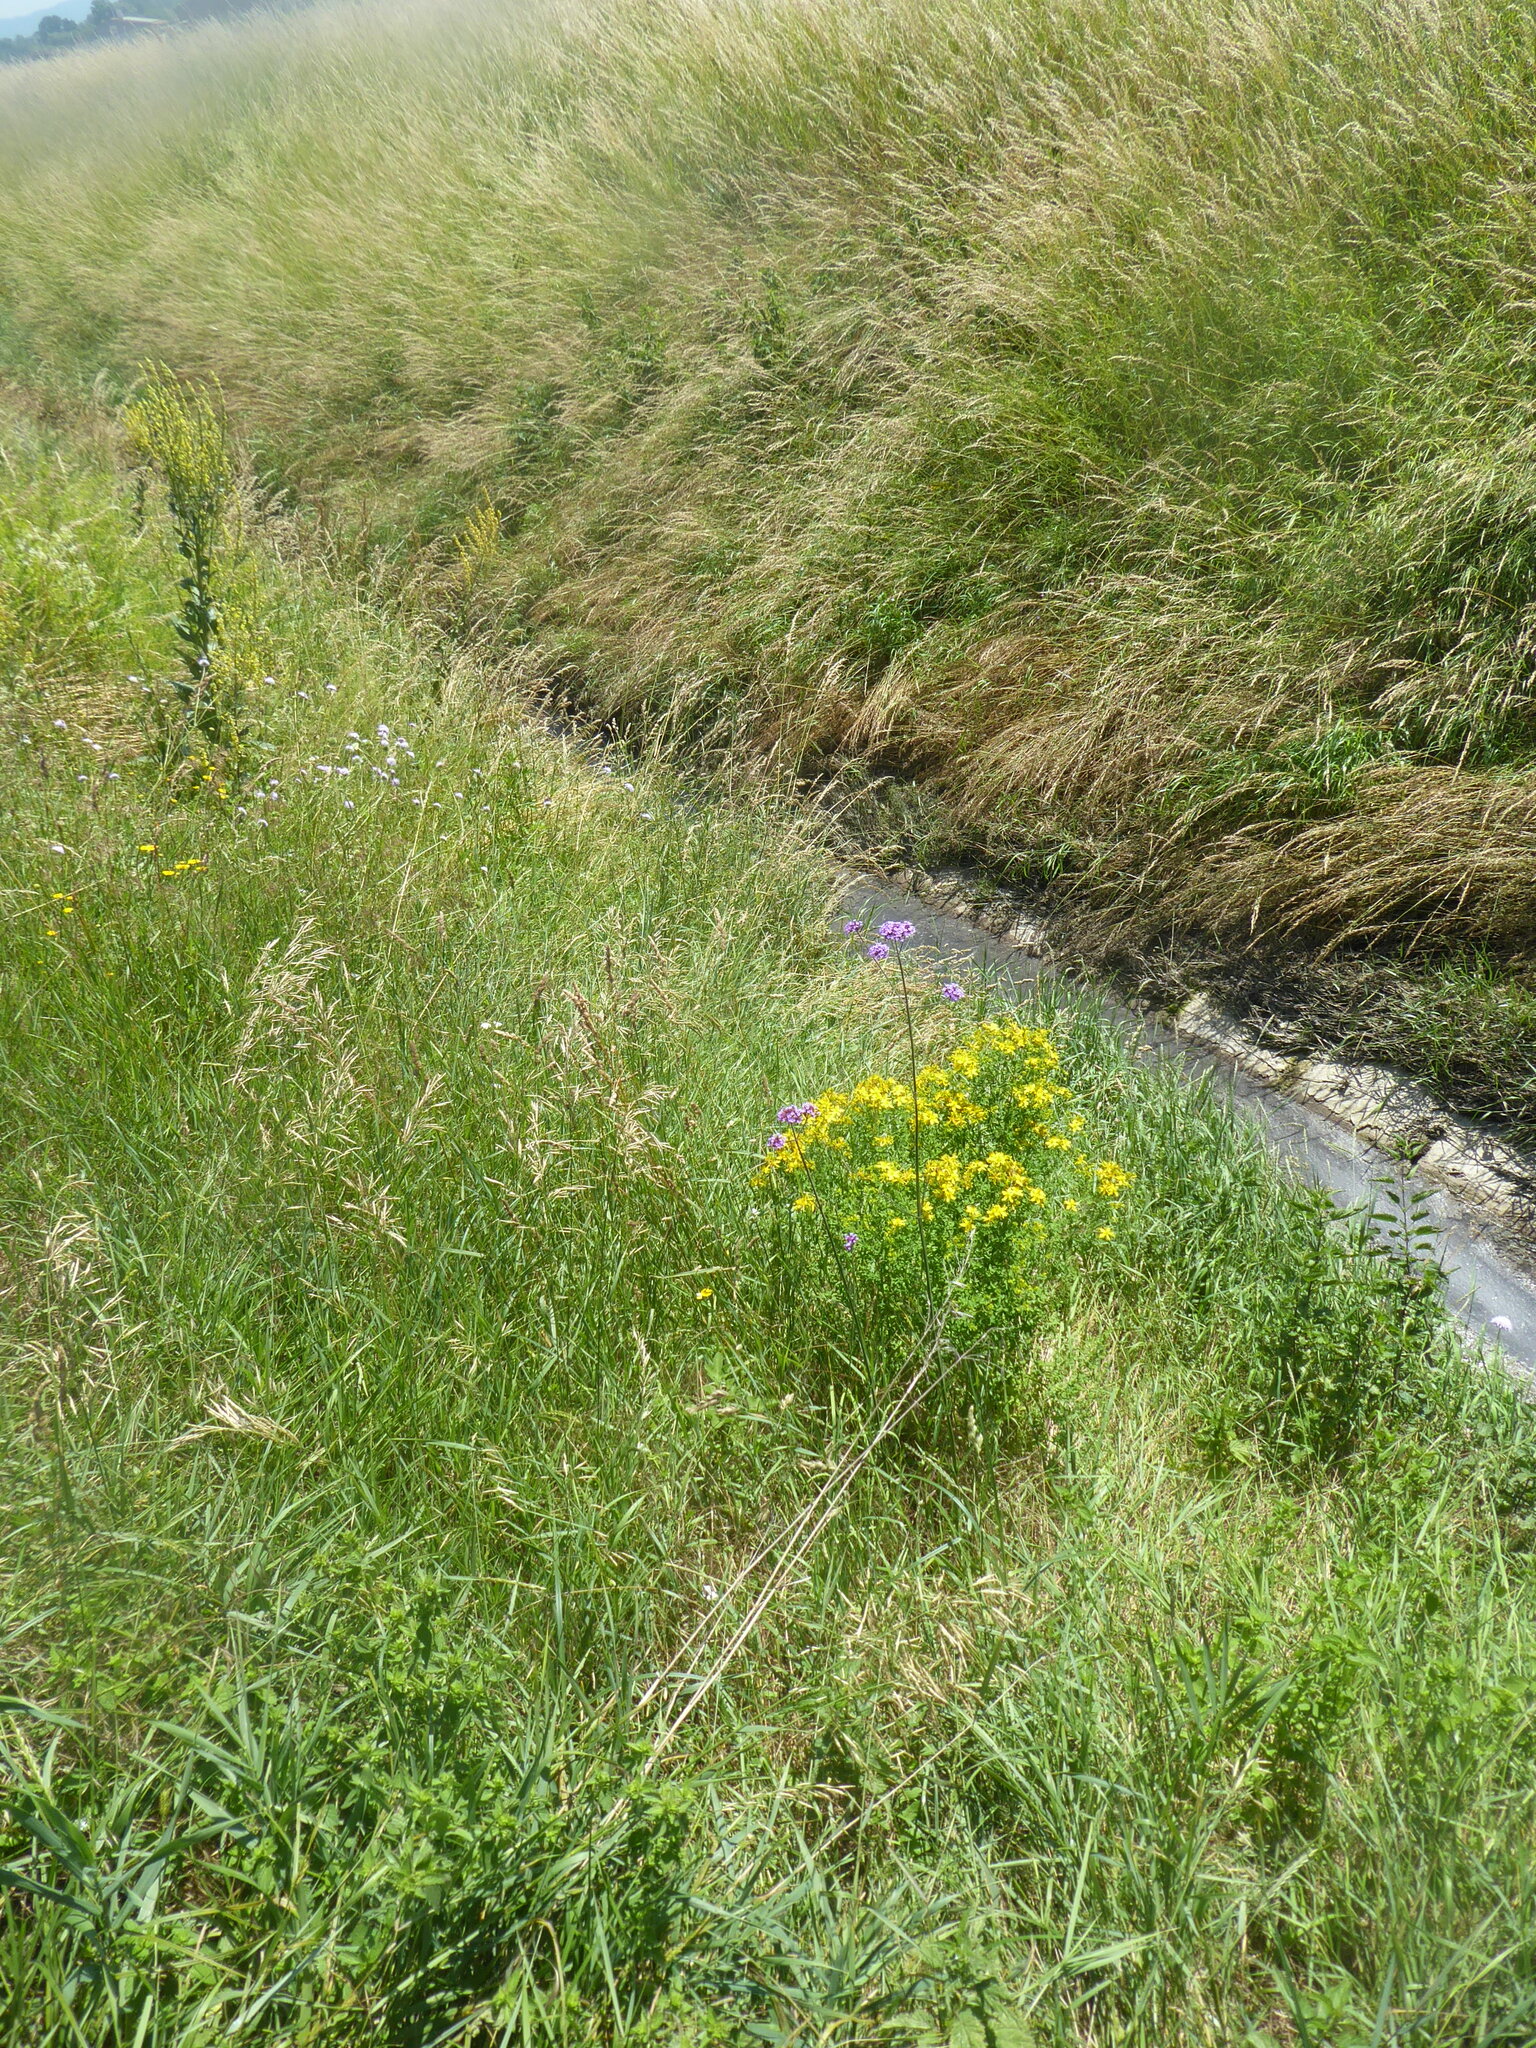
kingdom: Plantae
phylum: Tracheophyta
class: Magnoliopsida
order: Malpighiales
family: Hypericaceae
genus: Hypericum
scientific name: Hypericum perforatum
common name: Common st. johnswort
